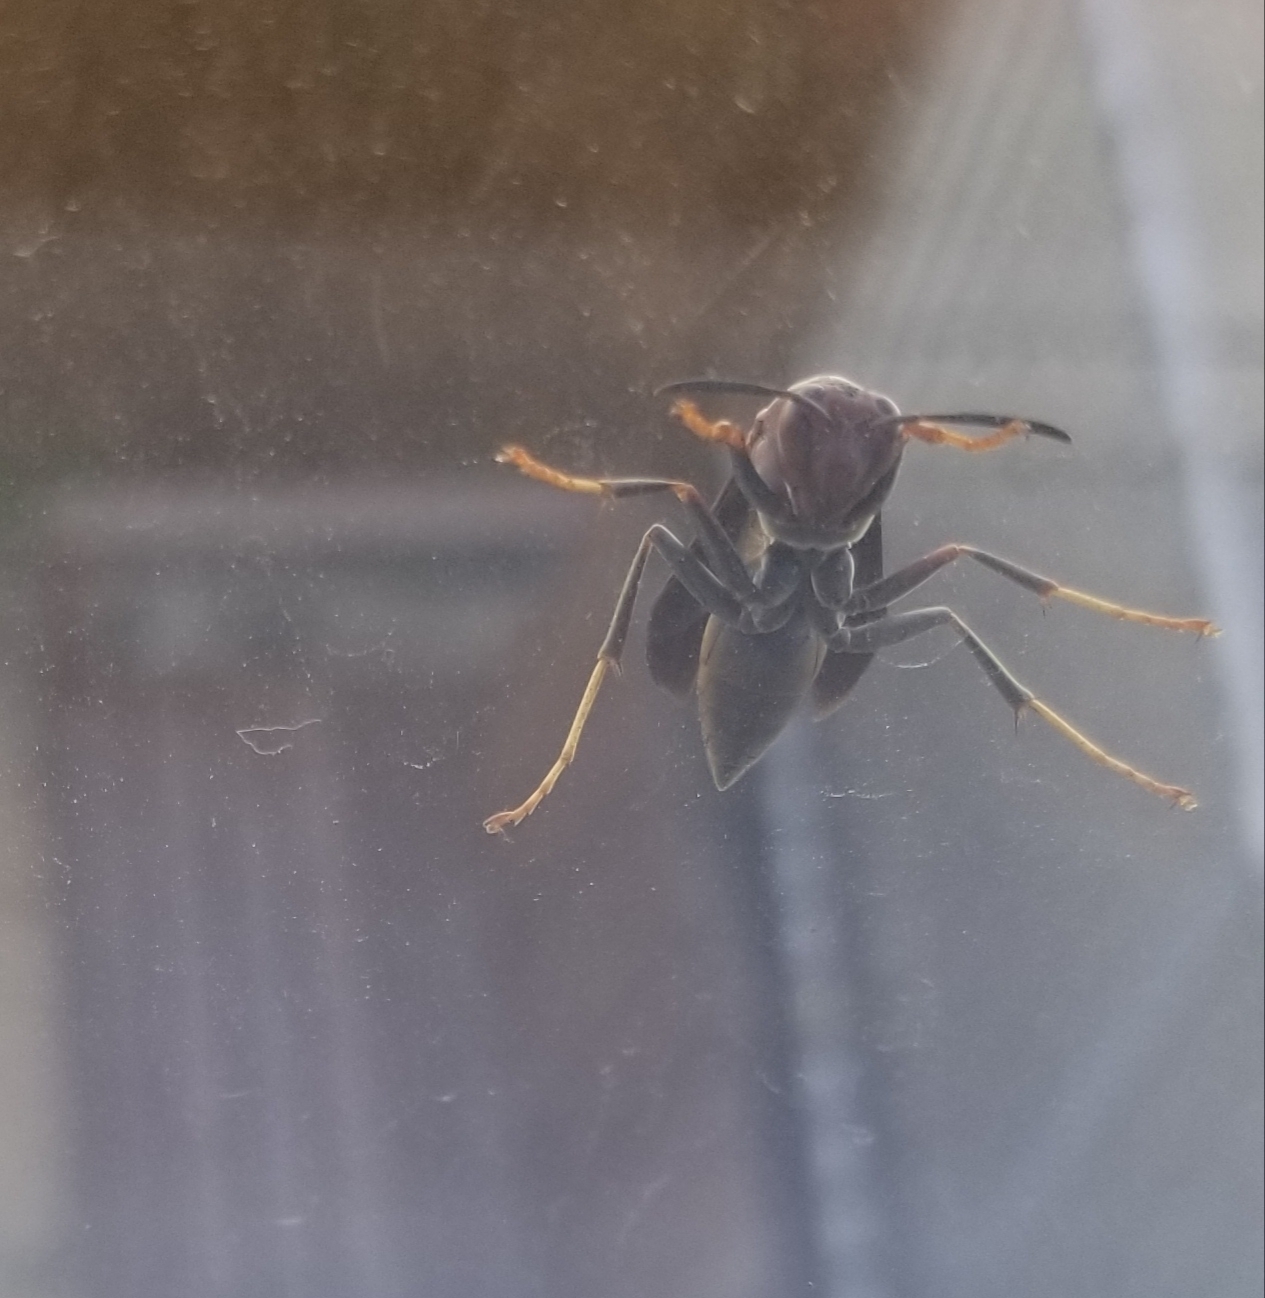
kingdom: Animalia
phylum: Arthropoda
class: Insecta
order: Hymenoptera
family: Eumenidae
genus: Polistes
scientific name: Polistes metricus
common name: Metric paper wasp
